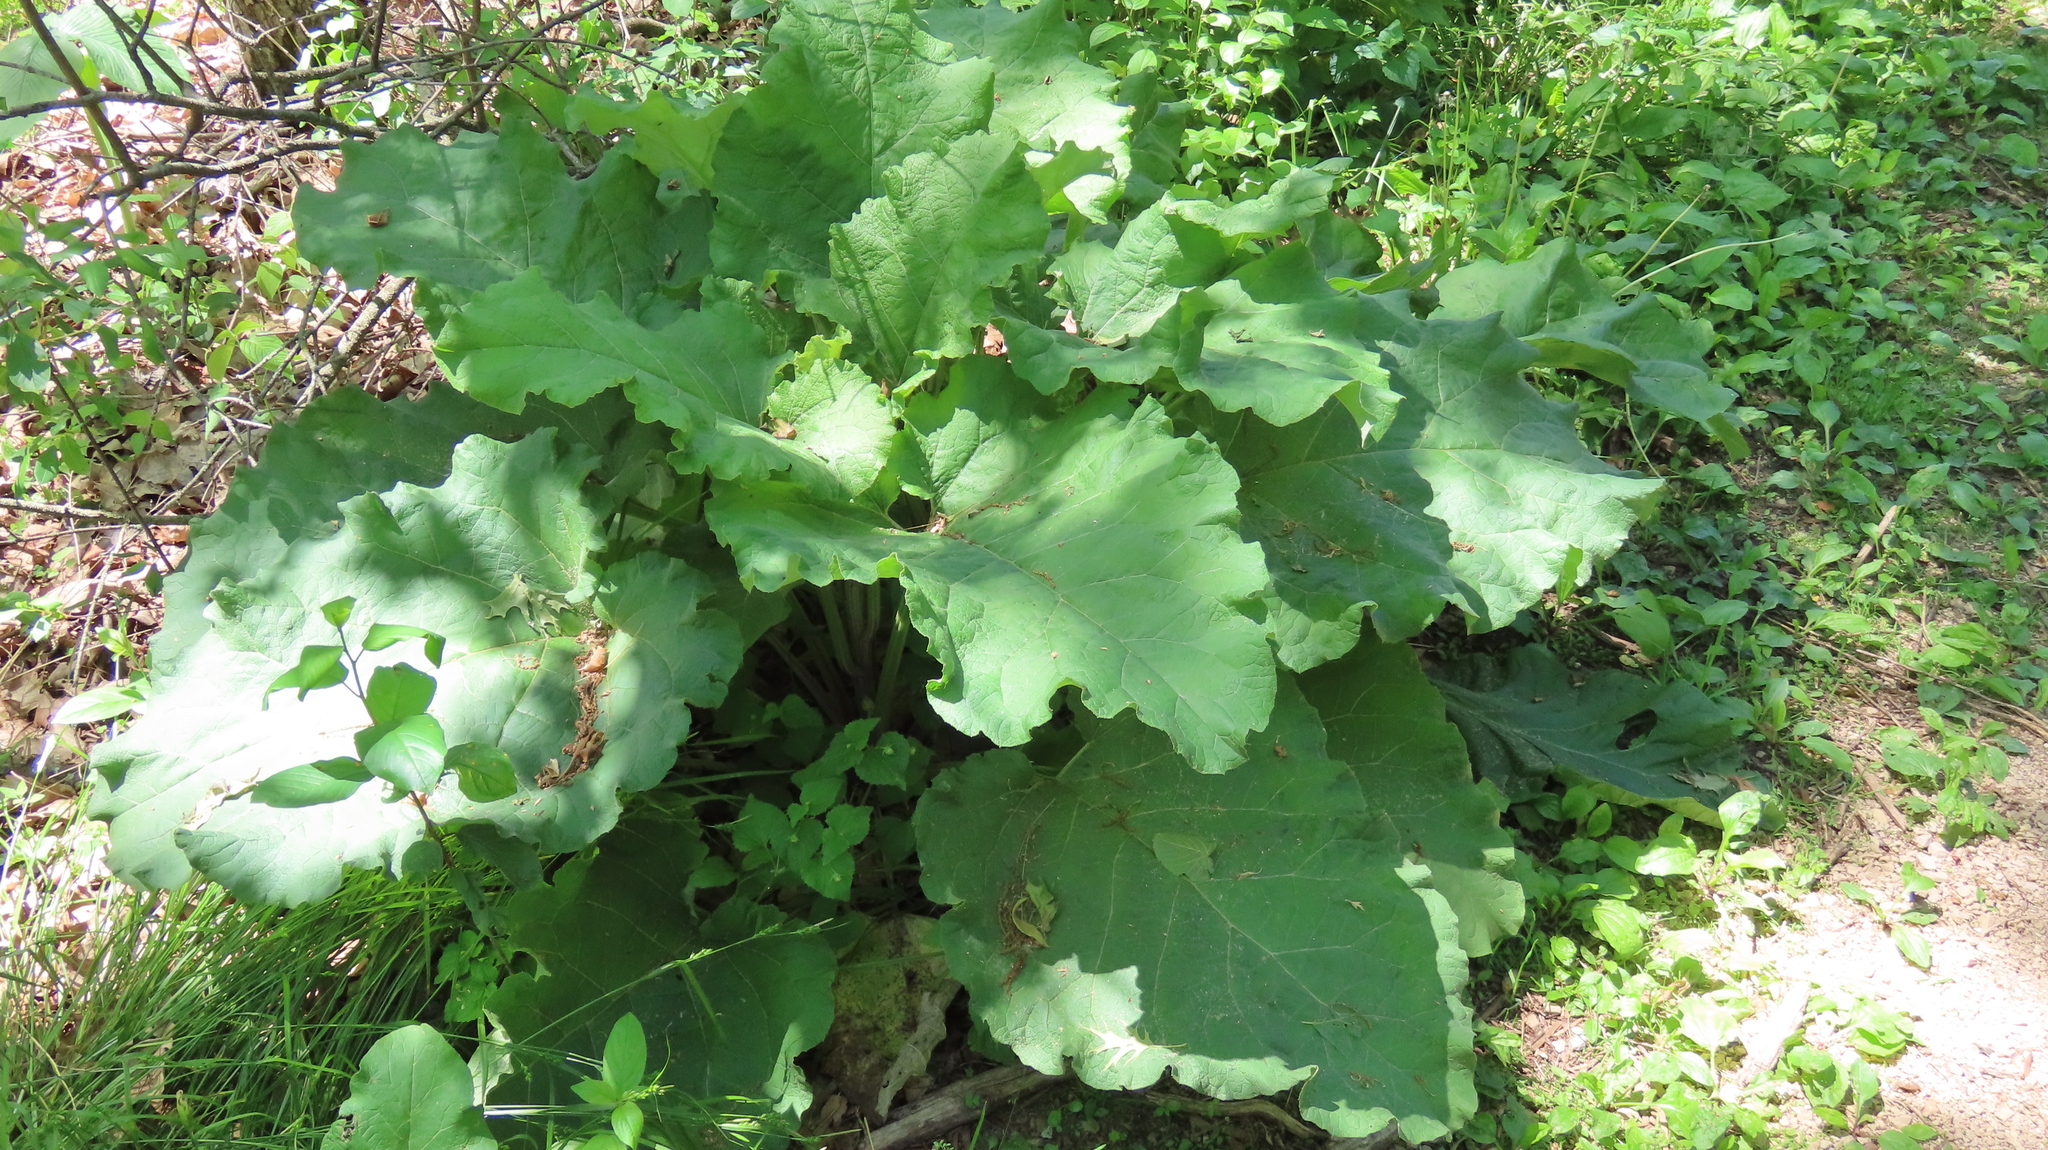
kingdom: Plantae
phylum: Tracheophyta
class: Magnoliopsida
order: Asterales
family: Asteraceae
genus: Arctium
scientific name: Arctium
